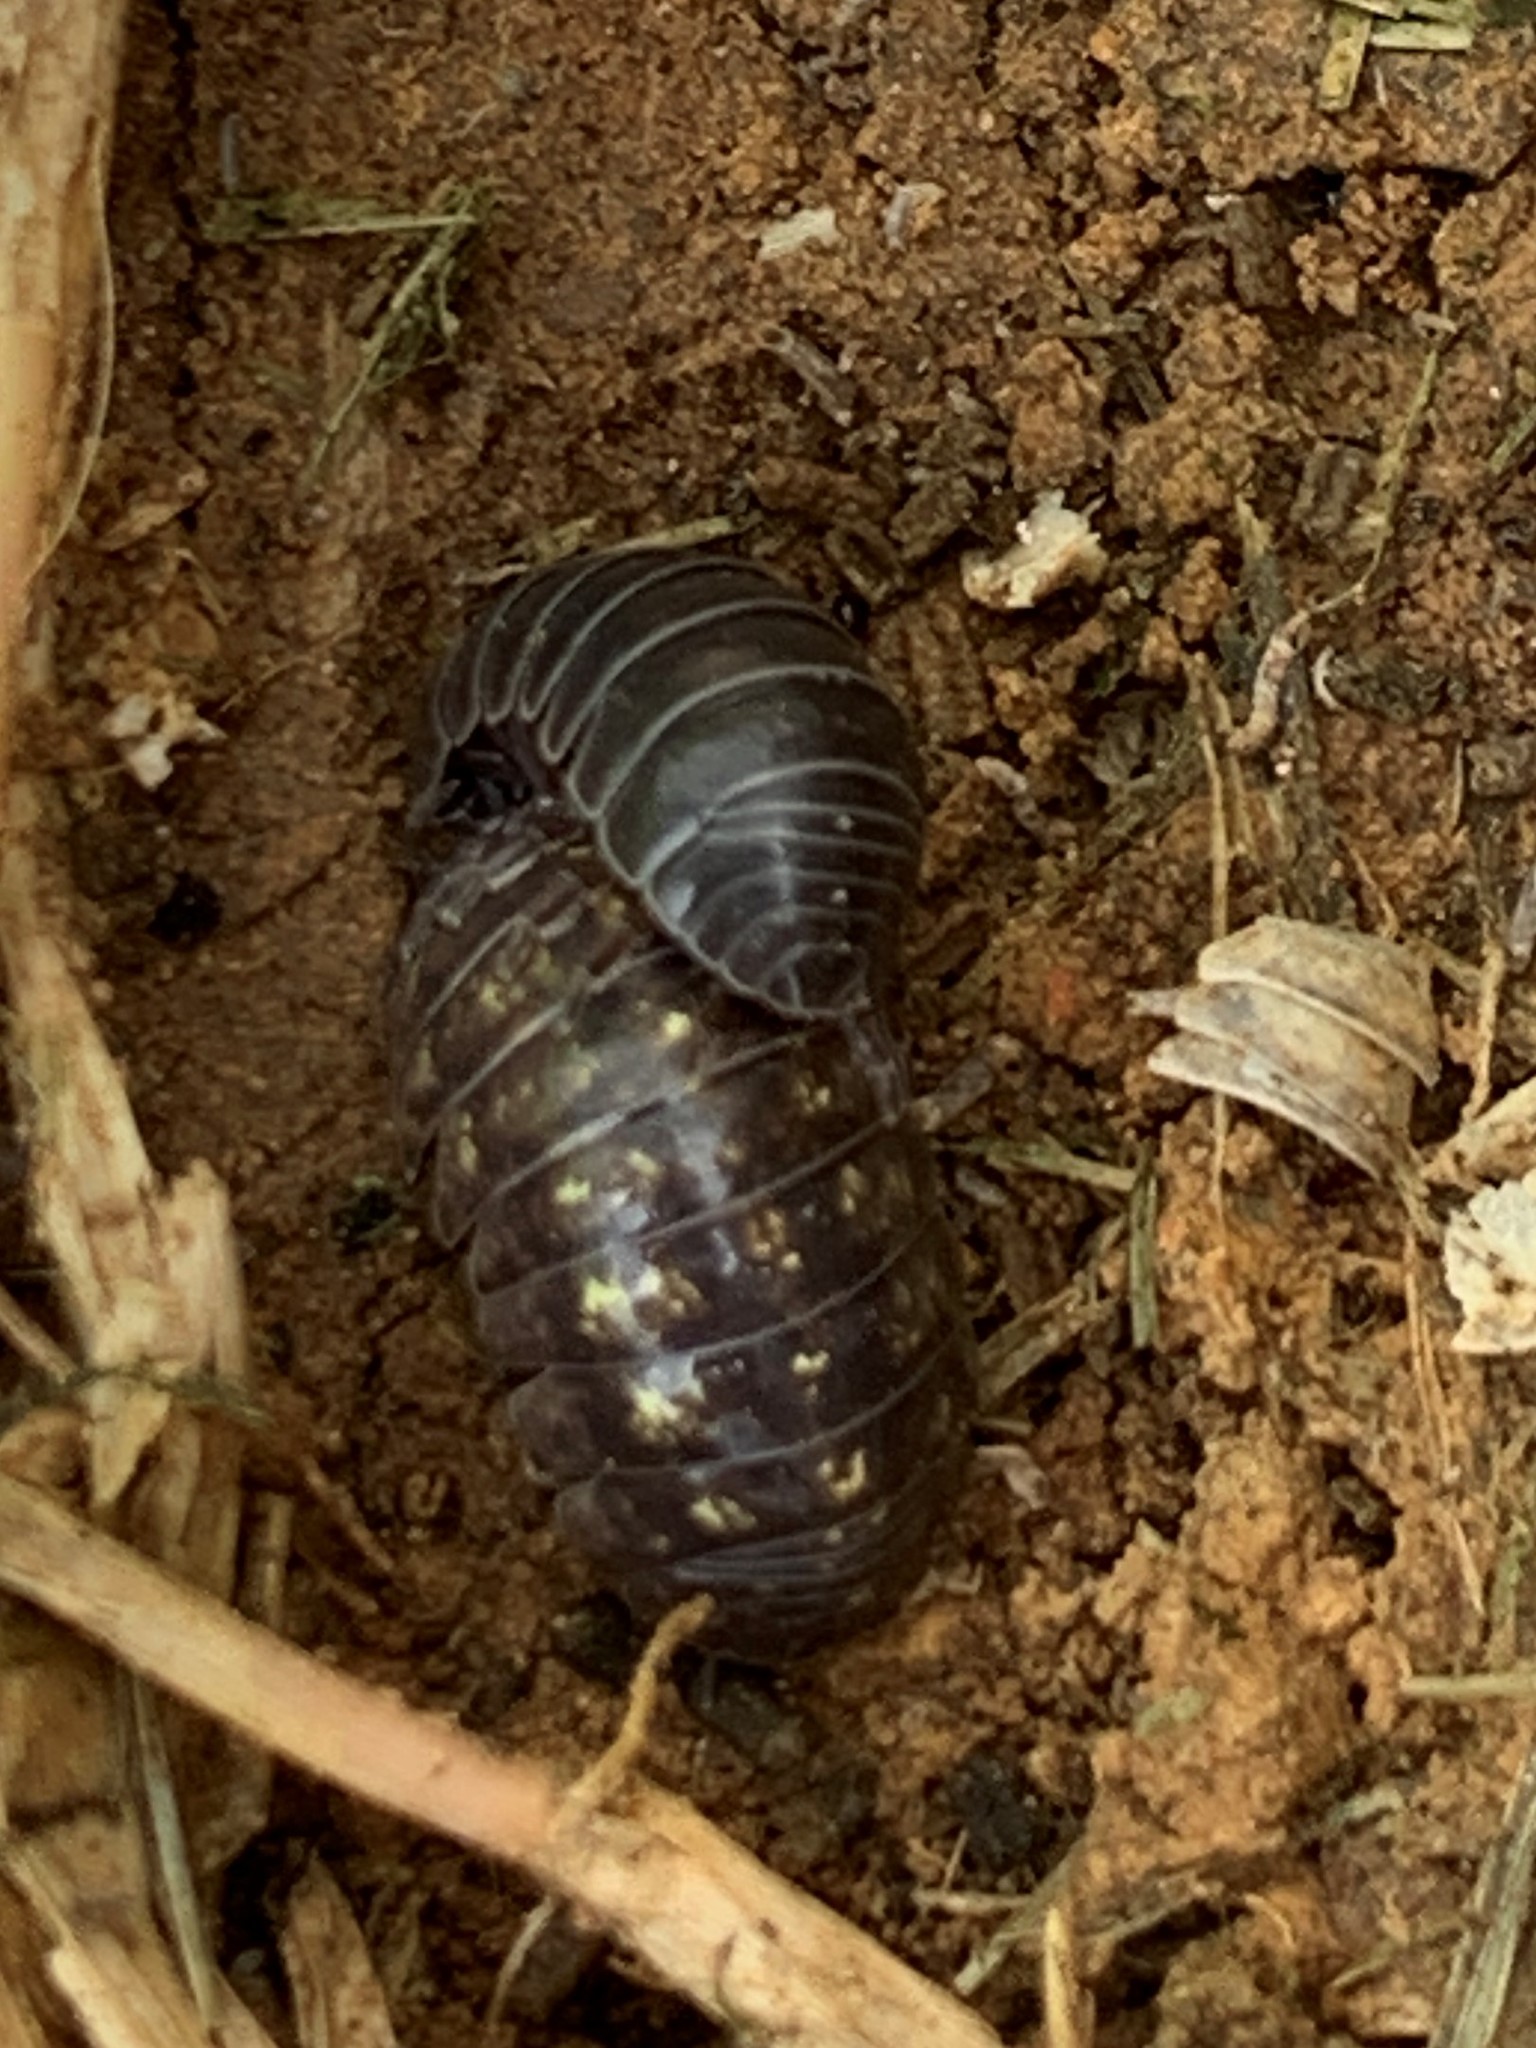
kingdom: Animalia
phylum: Arthropoda
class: Malacostraca
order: Isopoda
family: Armadillidiidae
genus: Armadillidium
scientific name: Armadillidium vulgare
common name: Common pill woodlouse
